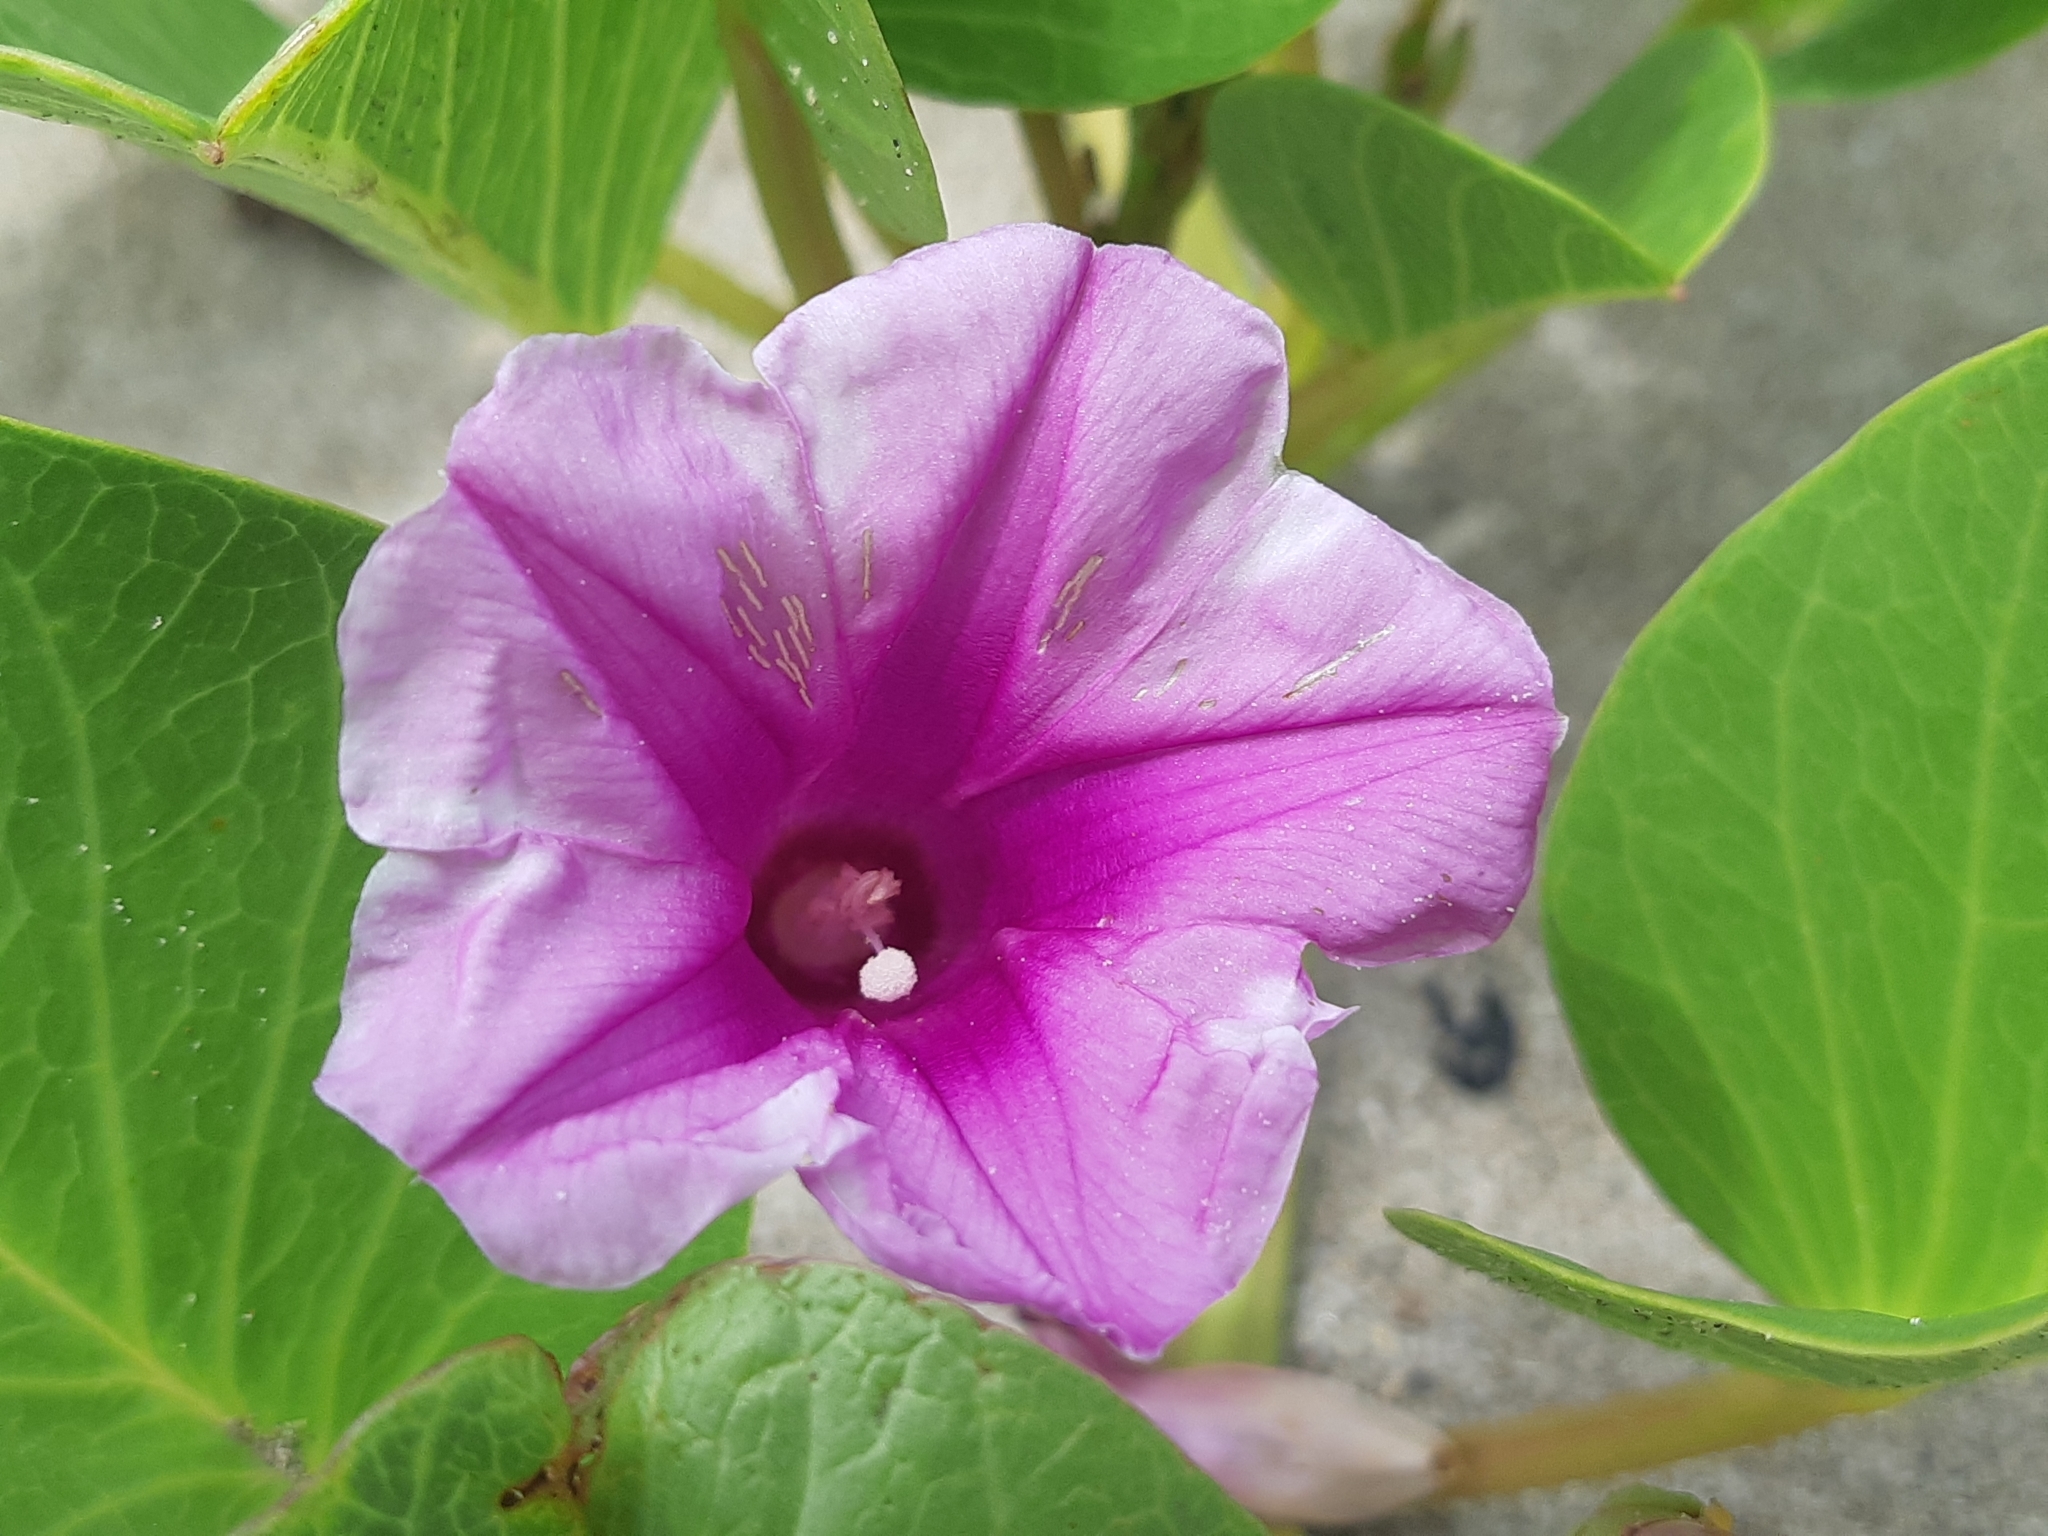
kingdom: Plantae
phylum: Tracheophyta
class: Magnoliopsida
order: Solanales
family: Convolvulaceae
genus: Ipomoea
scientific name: Ipomoea pes-caprae
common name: Beach morning glory
